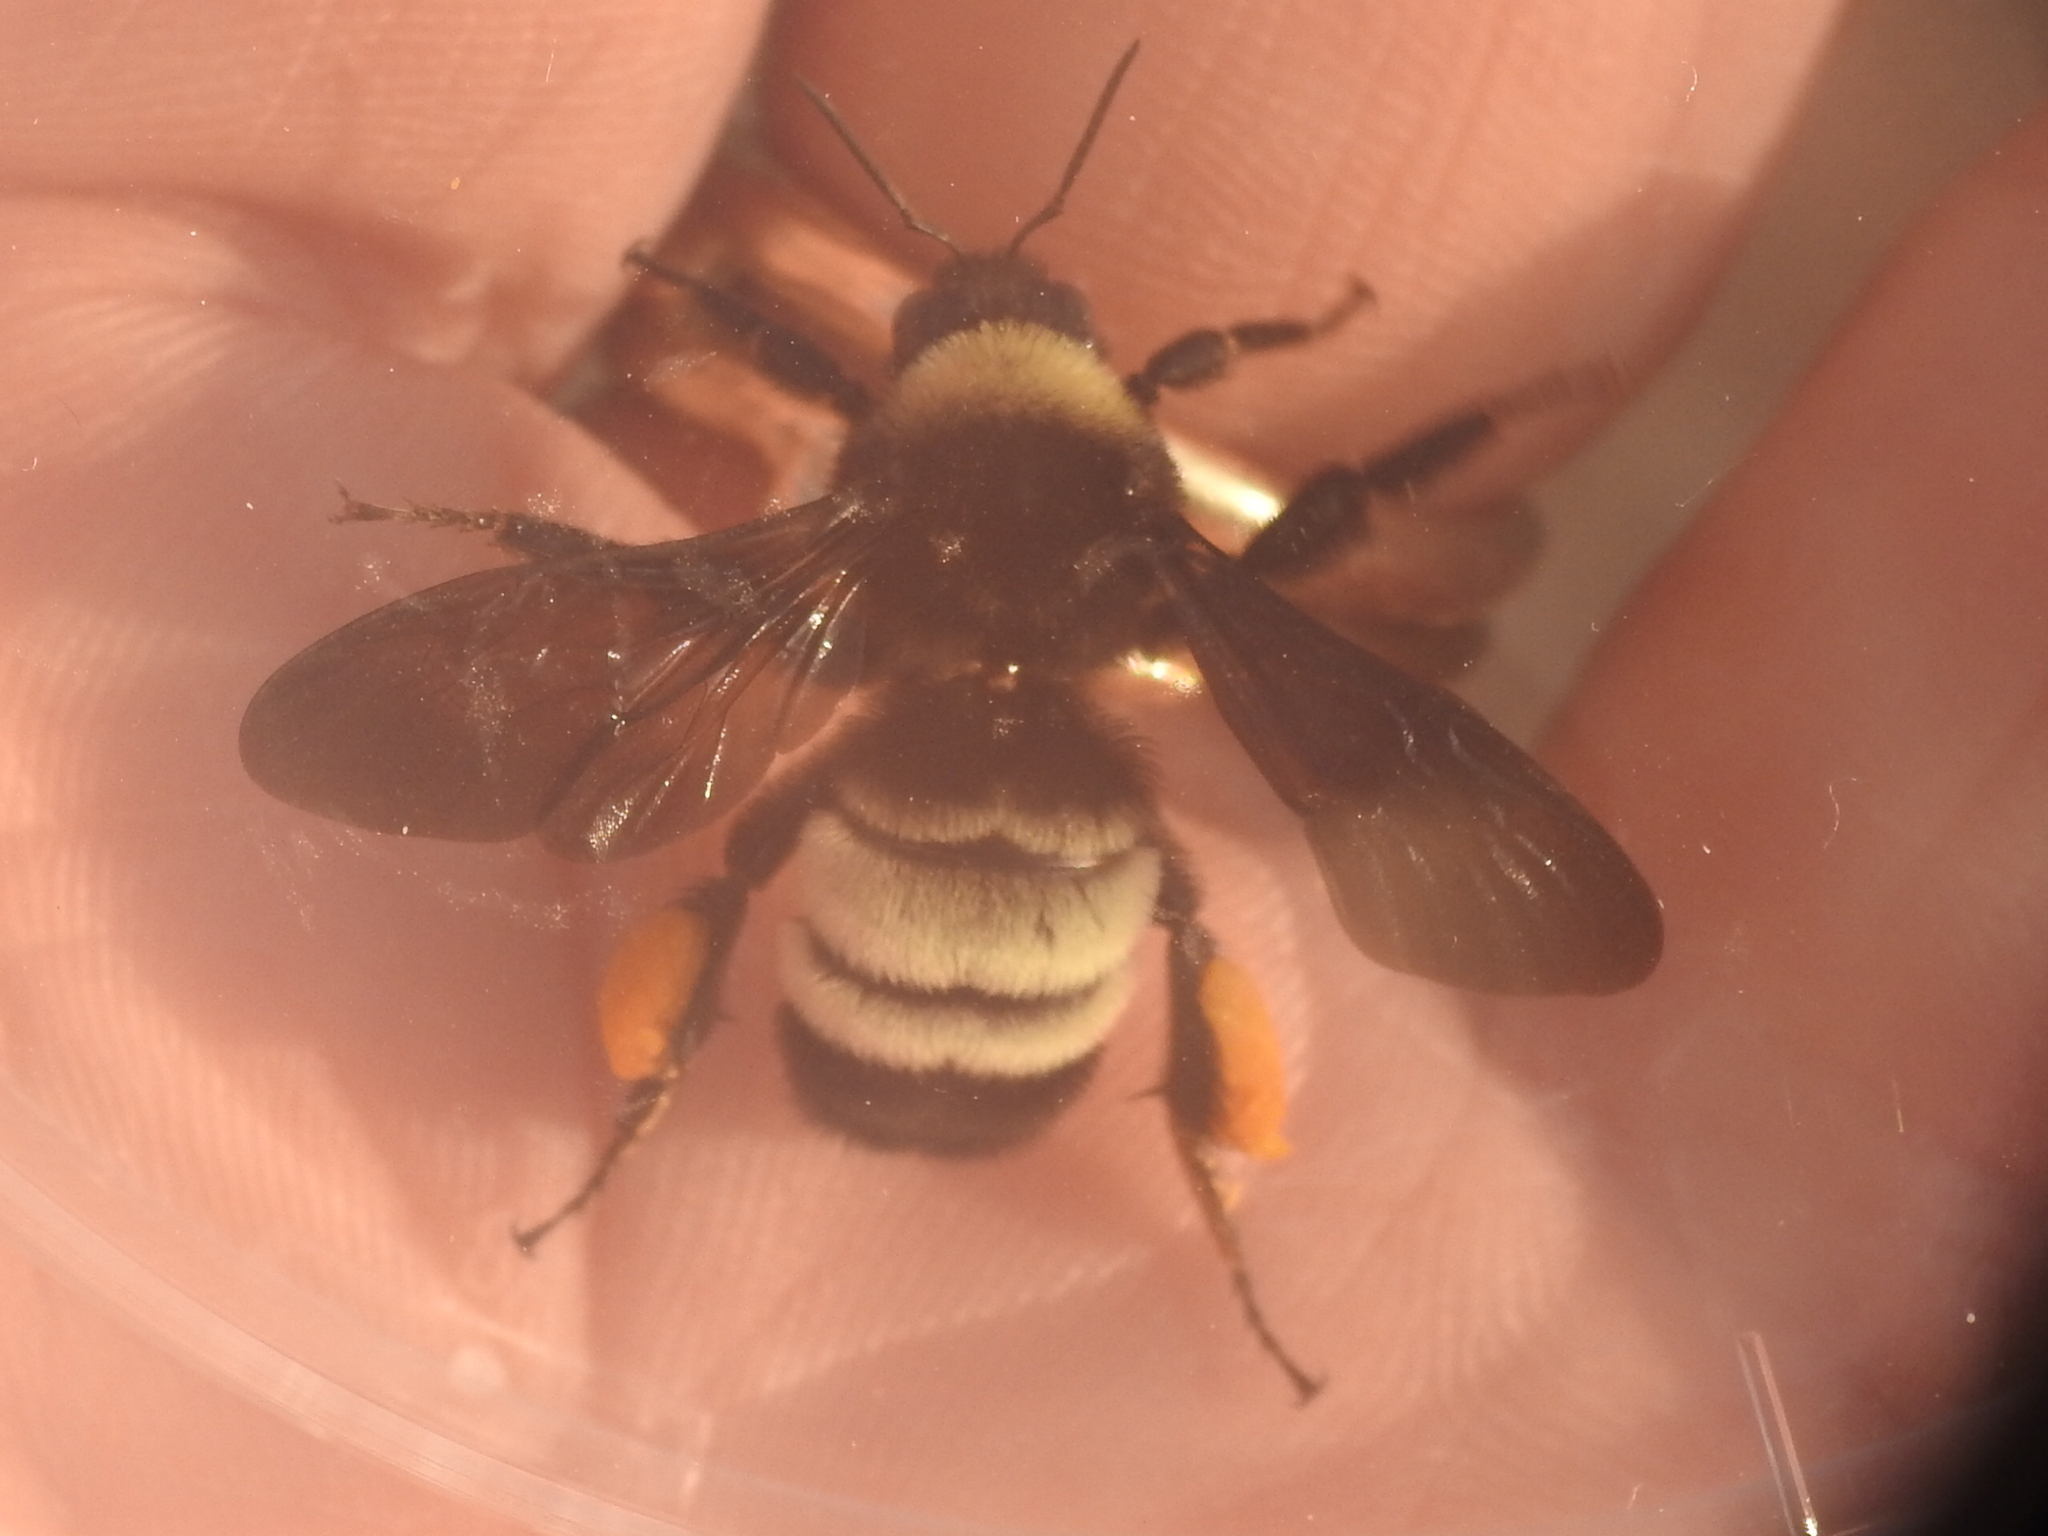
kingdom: Animalia
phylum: Arthropoda
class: Insecta
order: Hymenoptera
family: Apidae
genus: Bombus
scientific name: Bombus pensylvanicus
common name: Bumble bee
